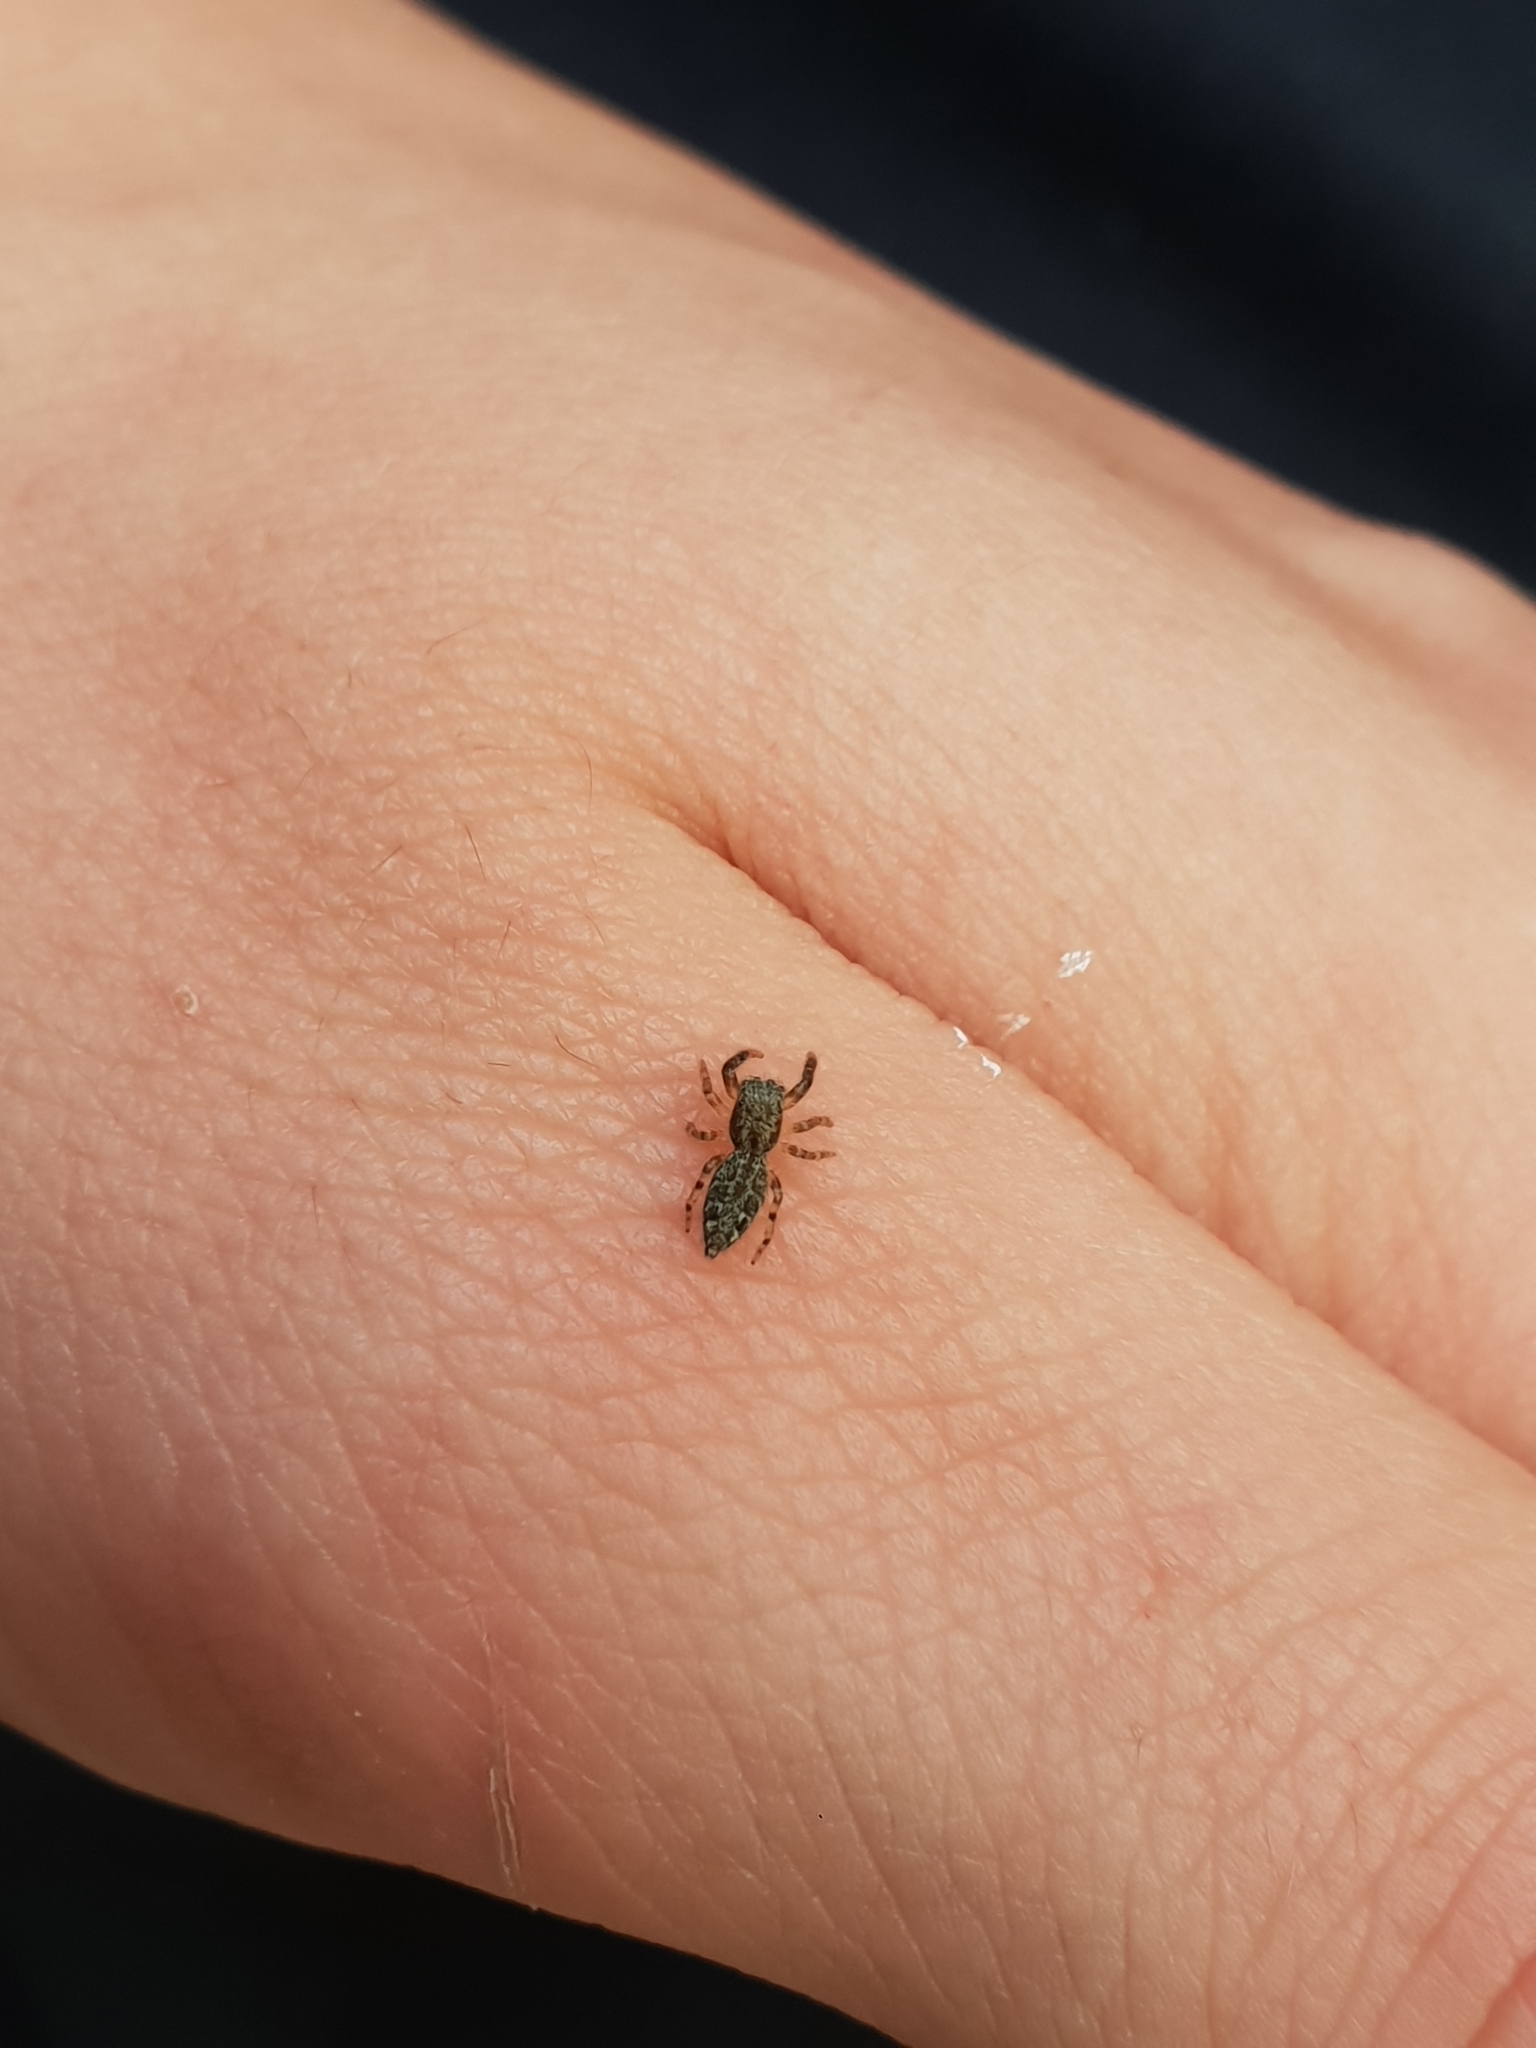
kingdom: Animalia
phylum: Arthropoda
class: Arachnida
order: Araneae
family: Salticidae
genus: Marpissa
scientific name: Marpissa muscosa
